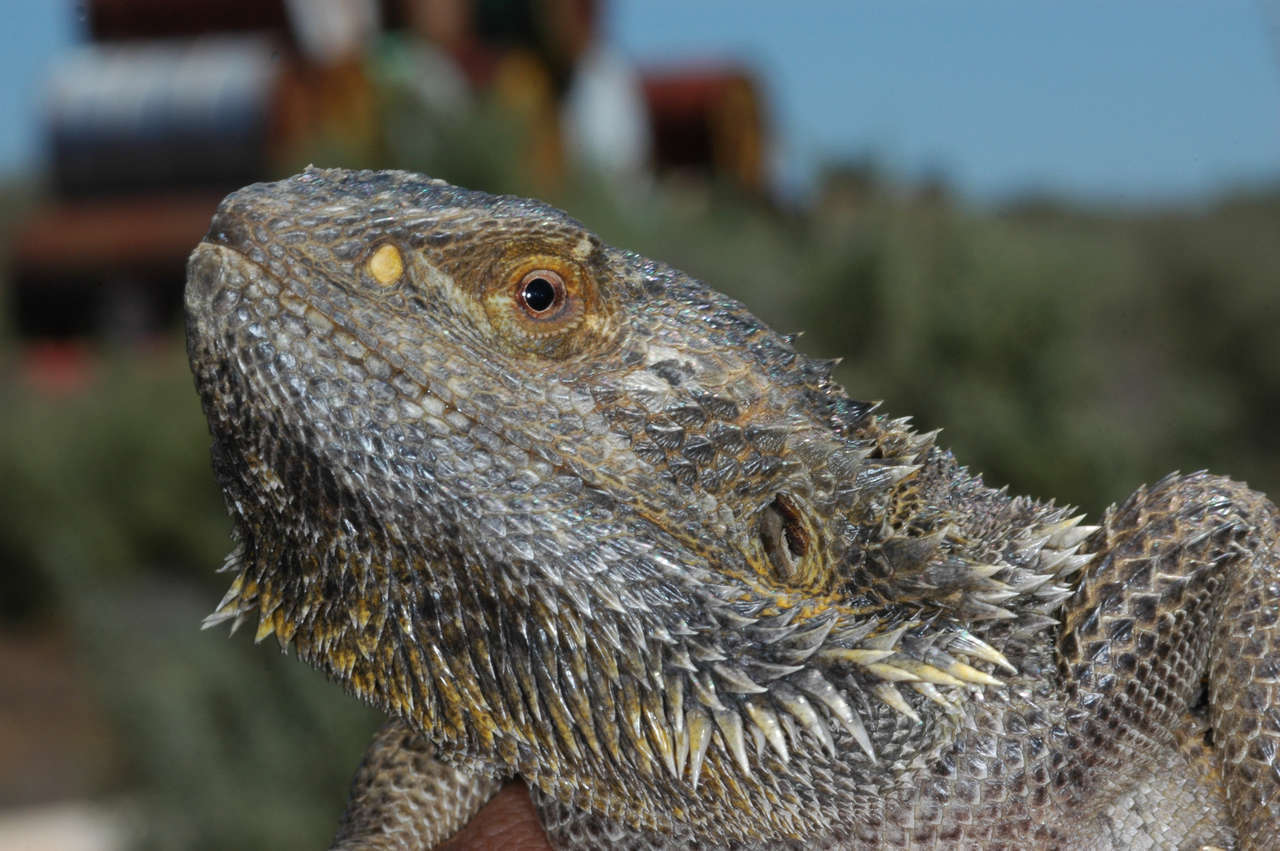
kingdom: Animalia
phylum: Chordata
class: Squamata
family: Agamidae
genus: Pogona
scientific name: Pogona vitticeps
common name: Central bearded dragon
